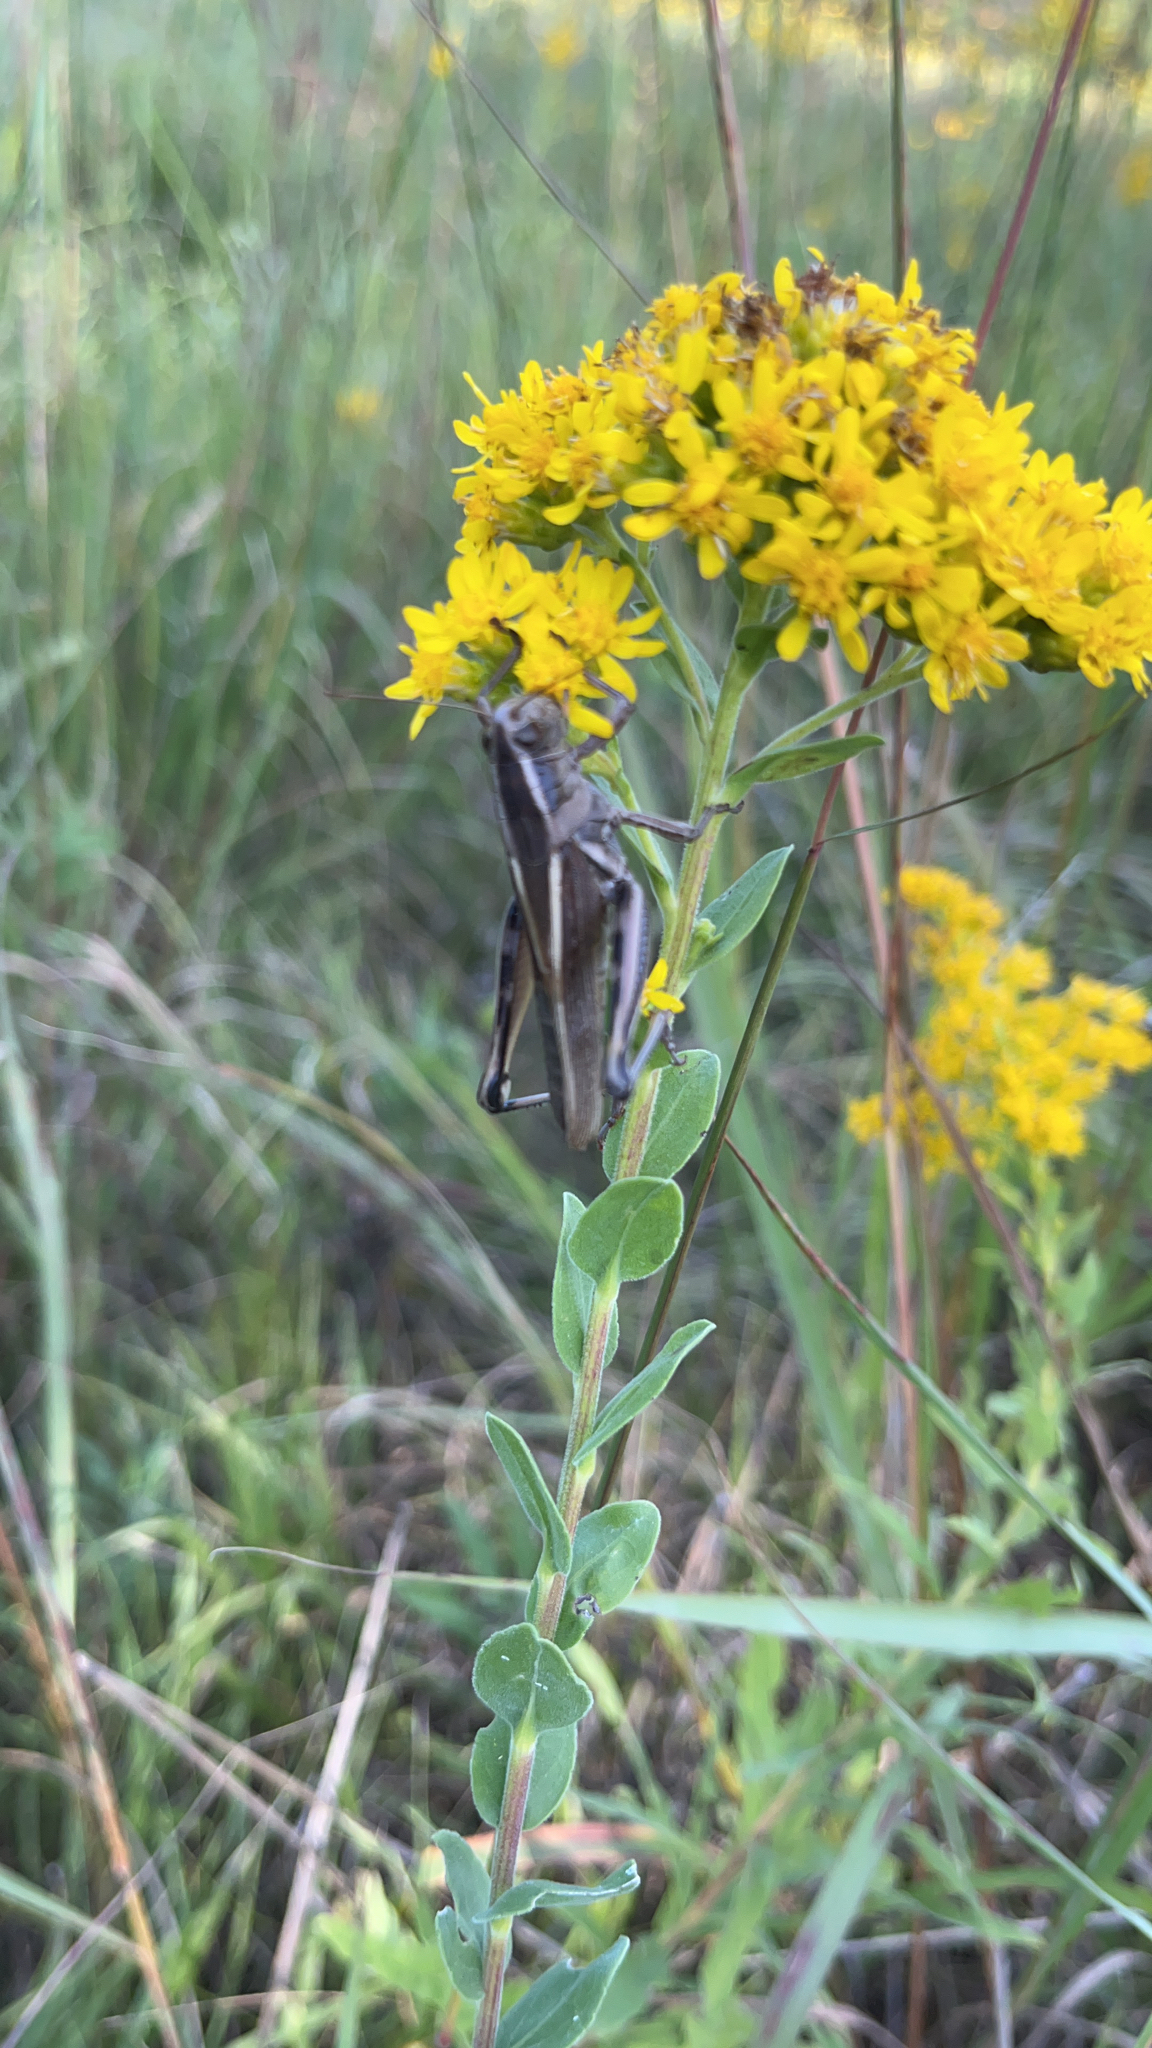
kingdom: Animalia
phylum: Arthropoda
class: Insecta
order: Orthoptera
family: Acrididae
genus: Melanoplus
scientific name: Melanoplus bivittatus
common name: Two-striped grasshopper
